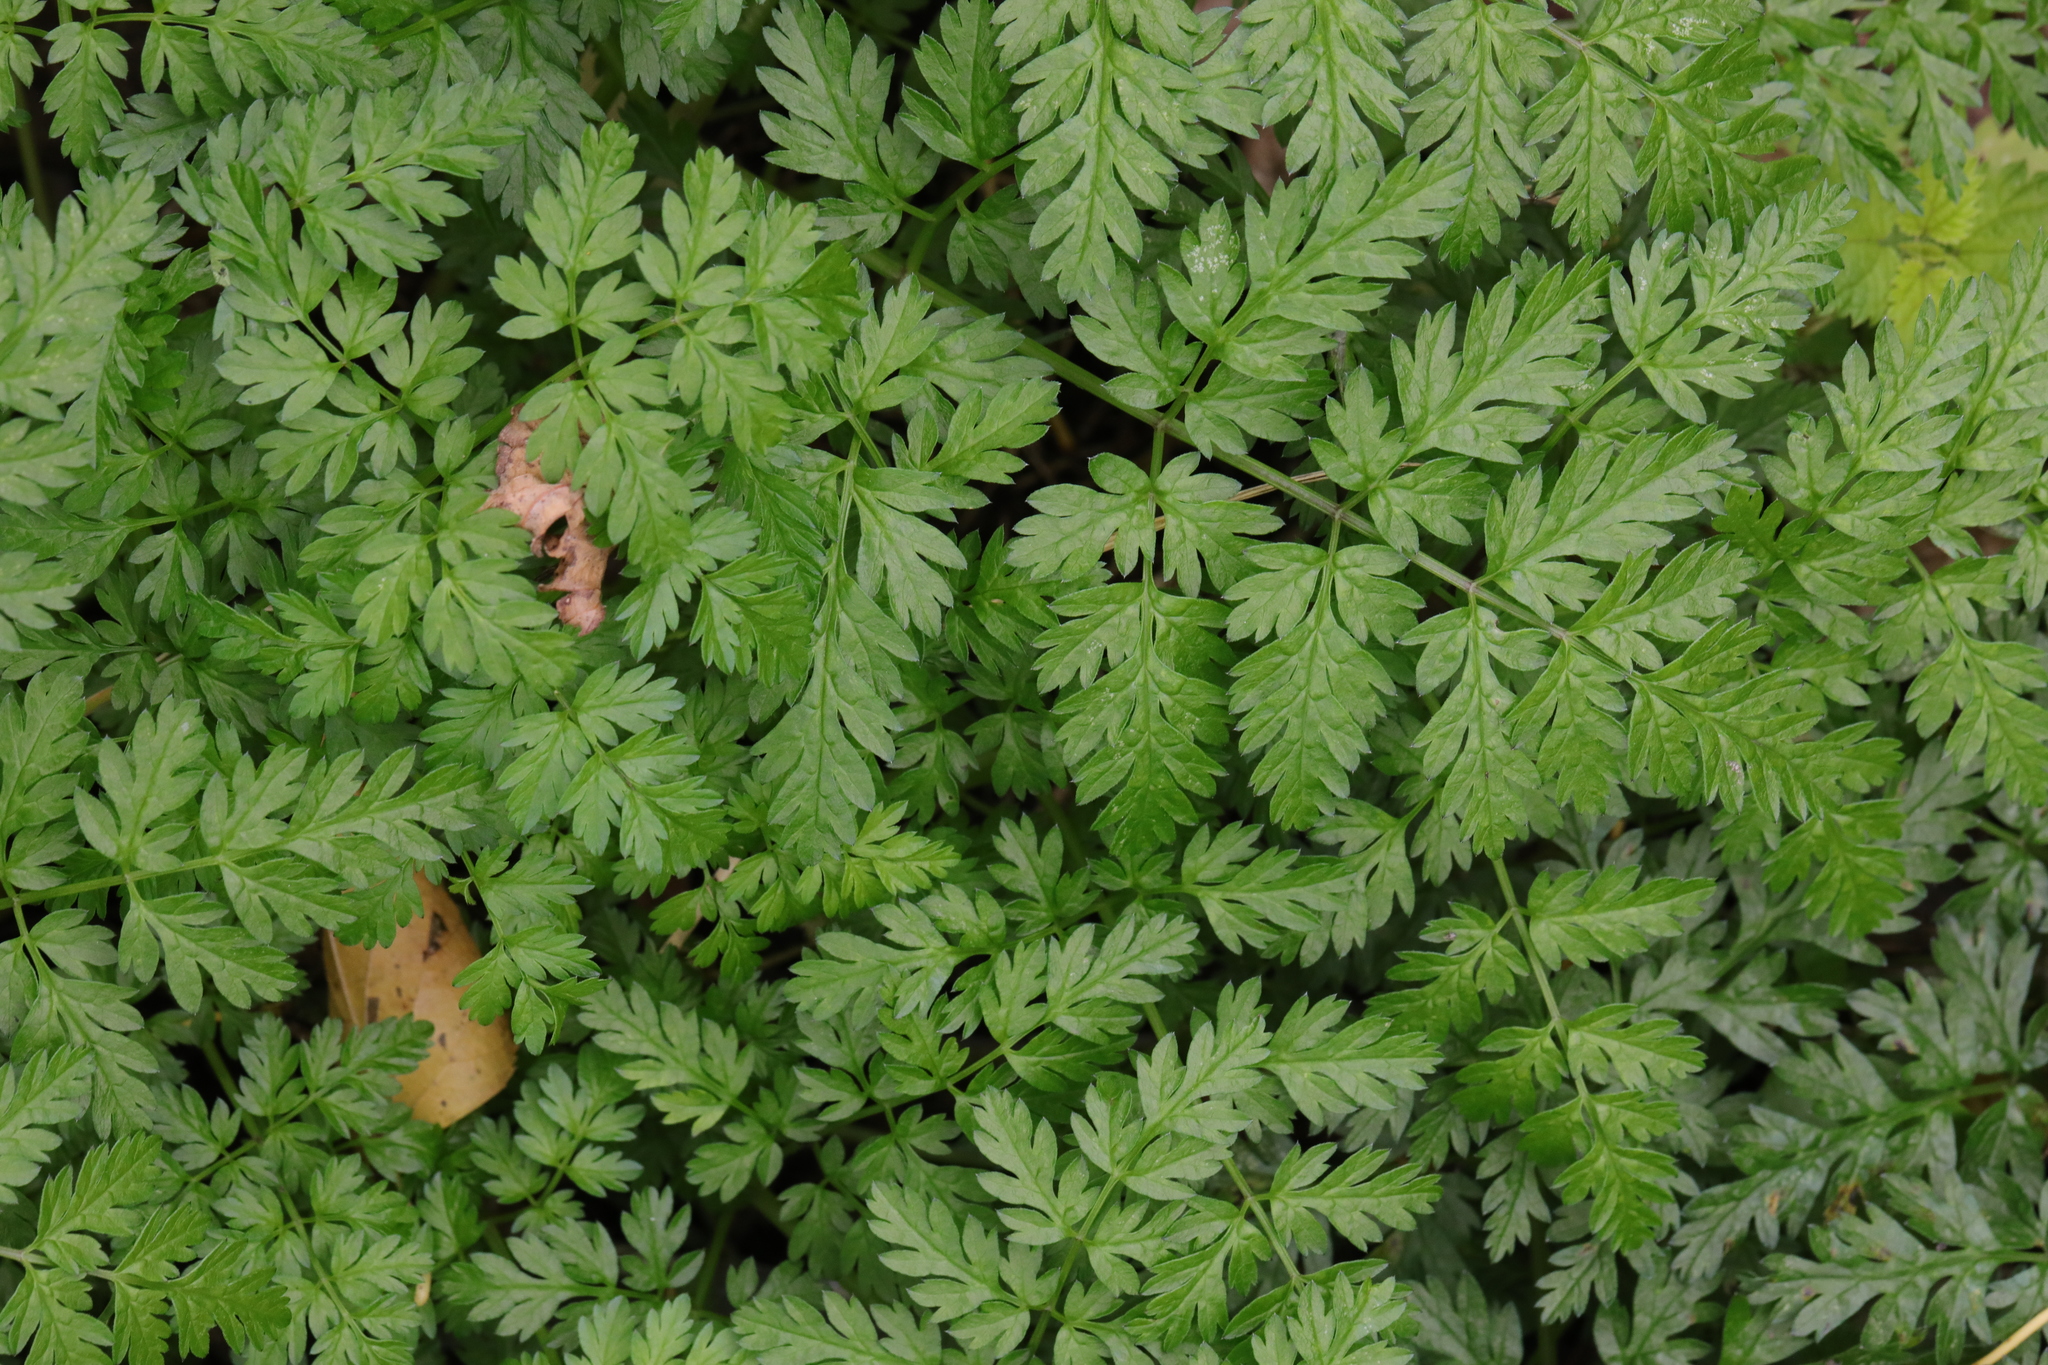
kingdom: Plantae
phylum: Tracheophyta
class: Magnoliopsida
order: Apiales
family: Apiaceae
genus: Anthriscus
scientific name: Anthriscus sylvestris
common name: Cow parsley
